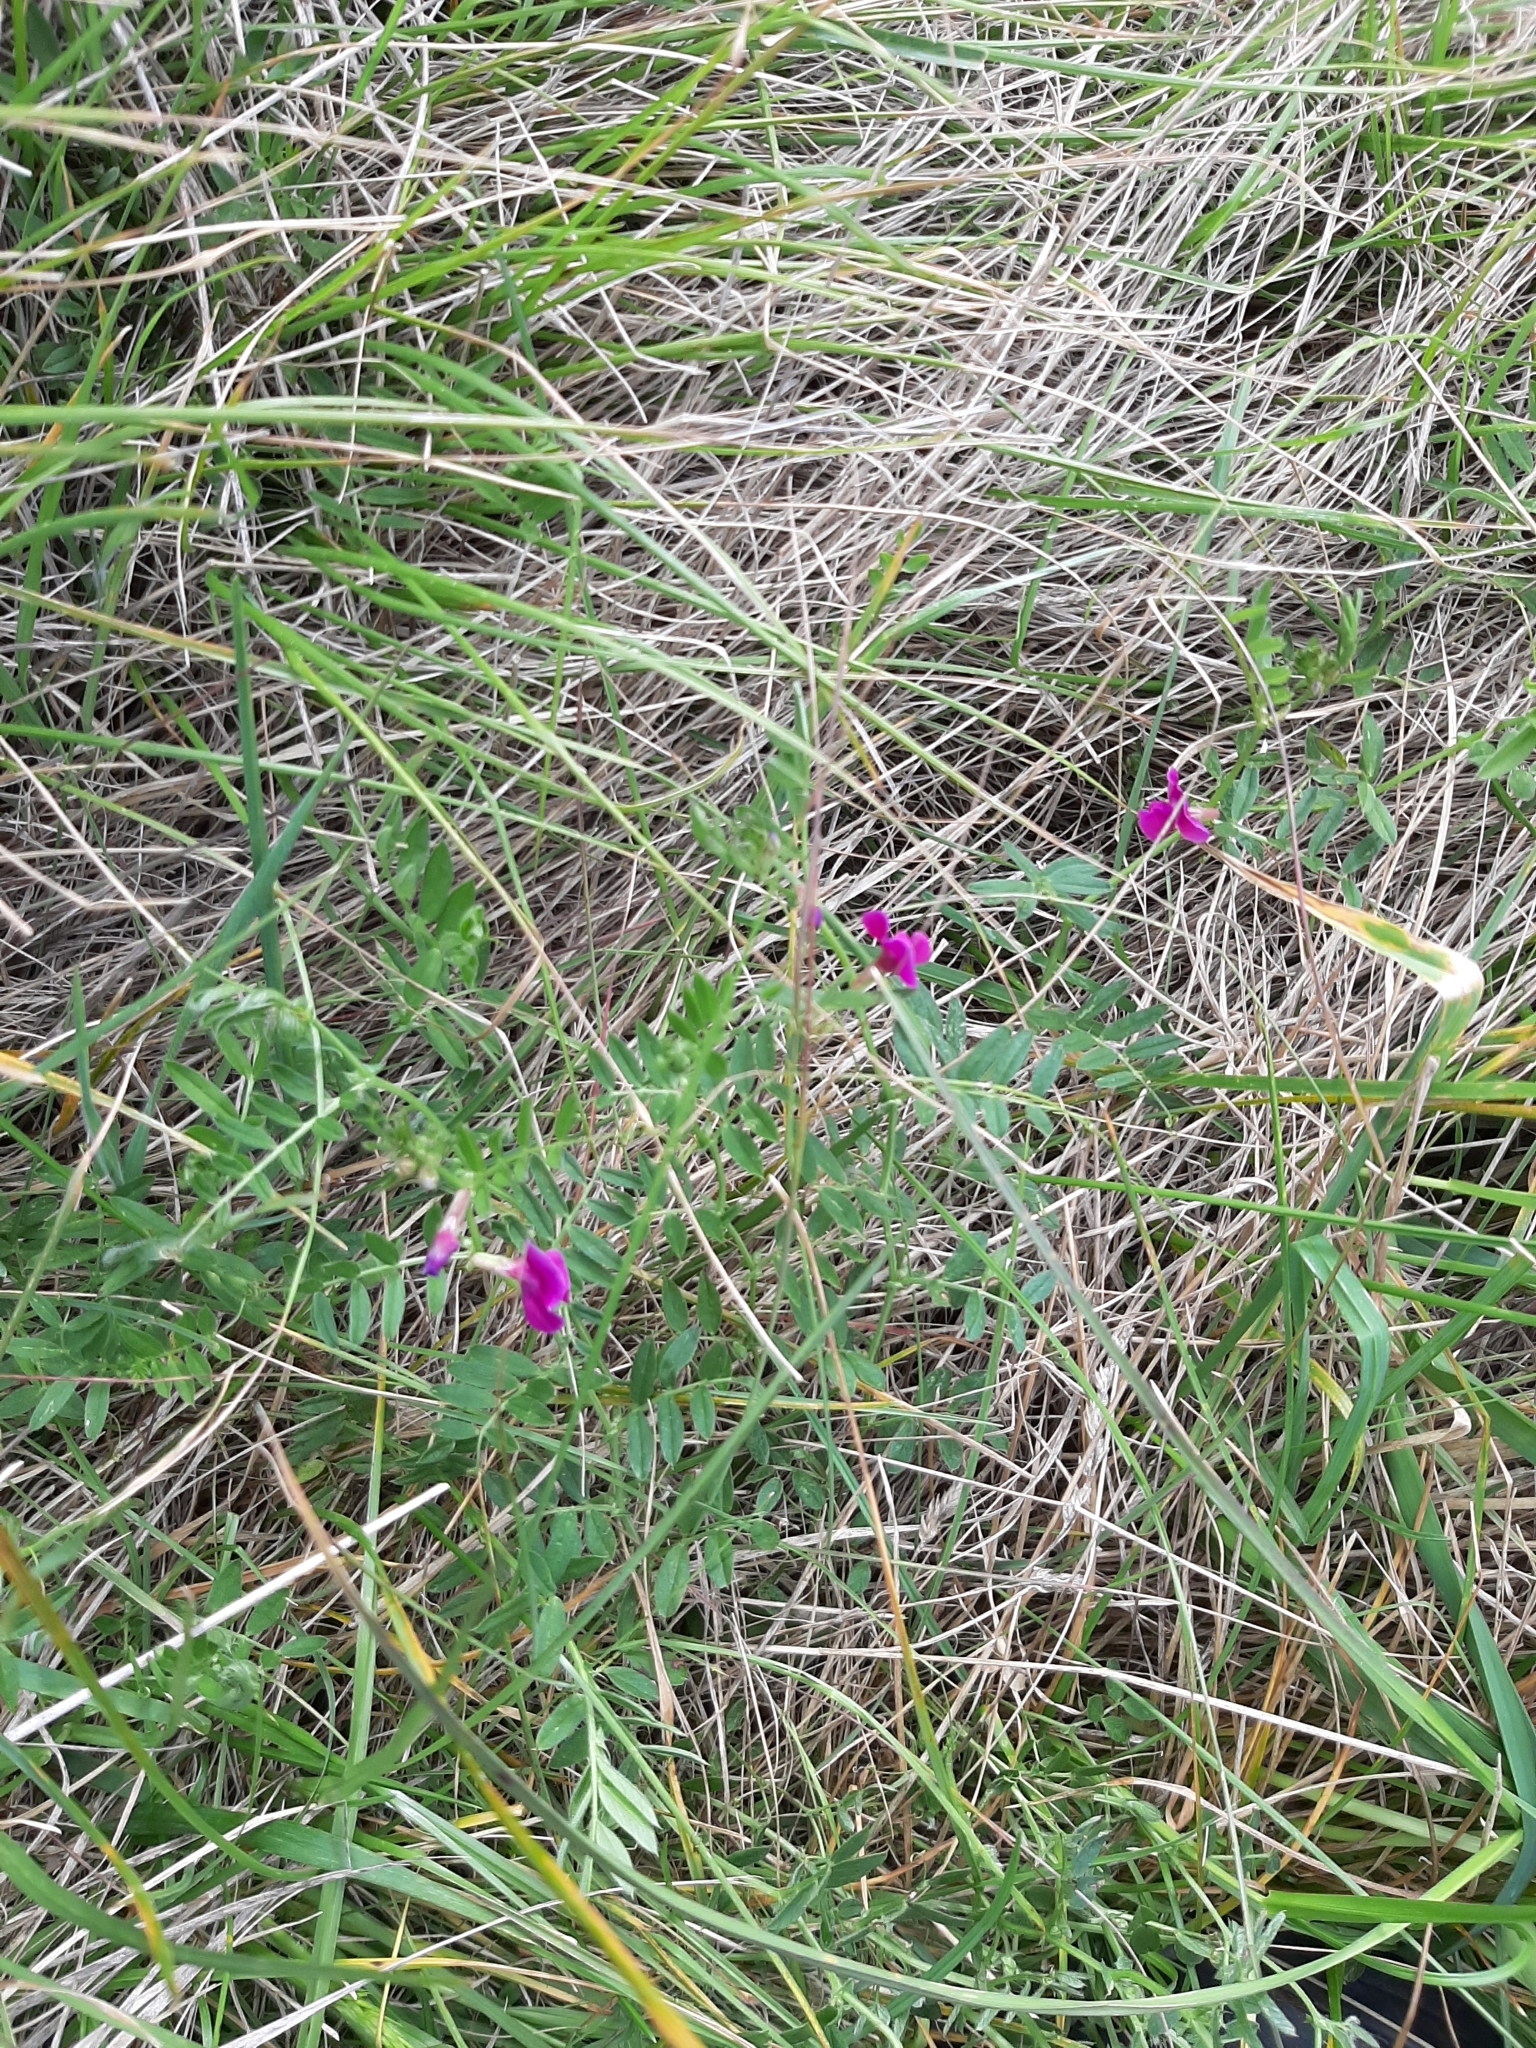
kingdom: Plantae
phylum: Tracheophyta
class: Magnoliopsida
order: Fabales
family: Fabaceae
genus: Vicia
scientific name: Vicia sativa
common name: Garden vetch
